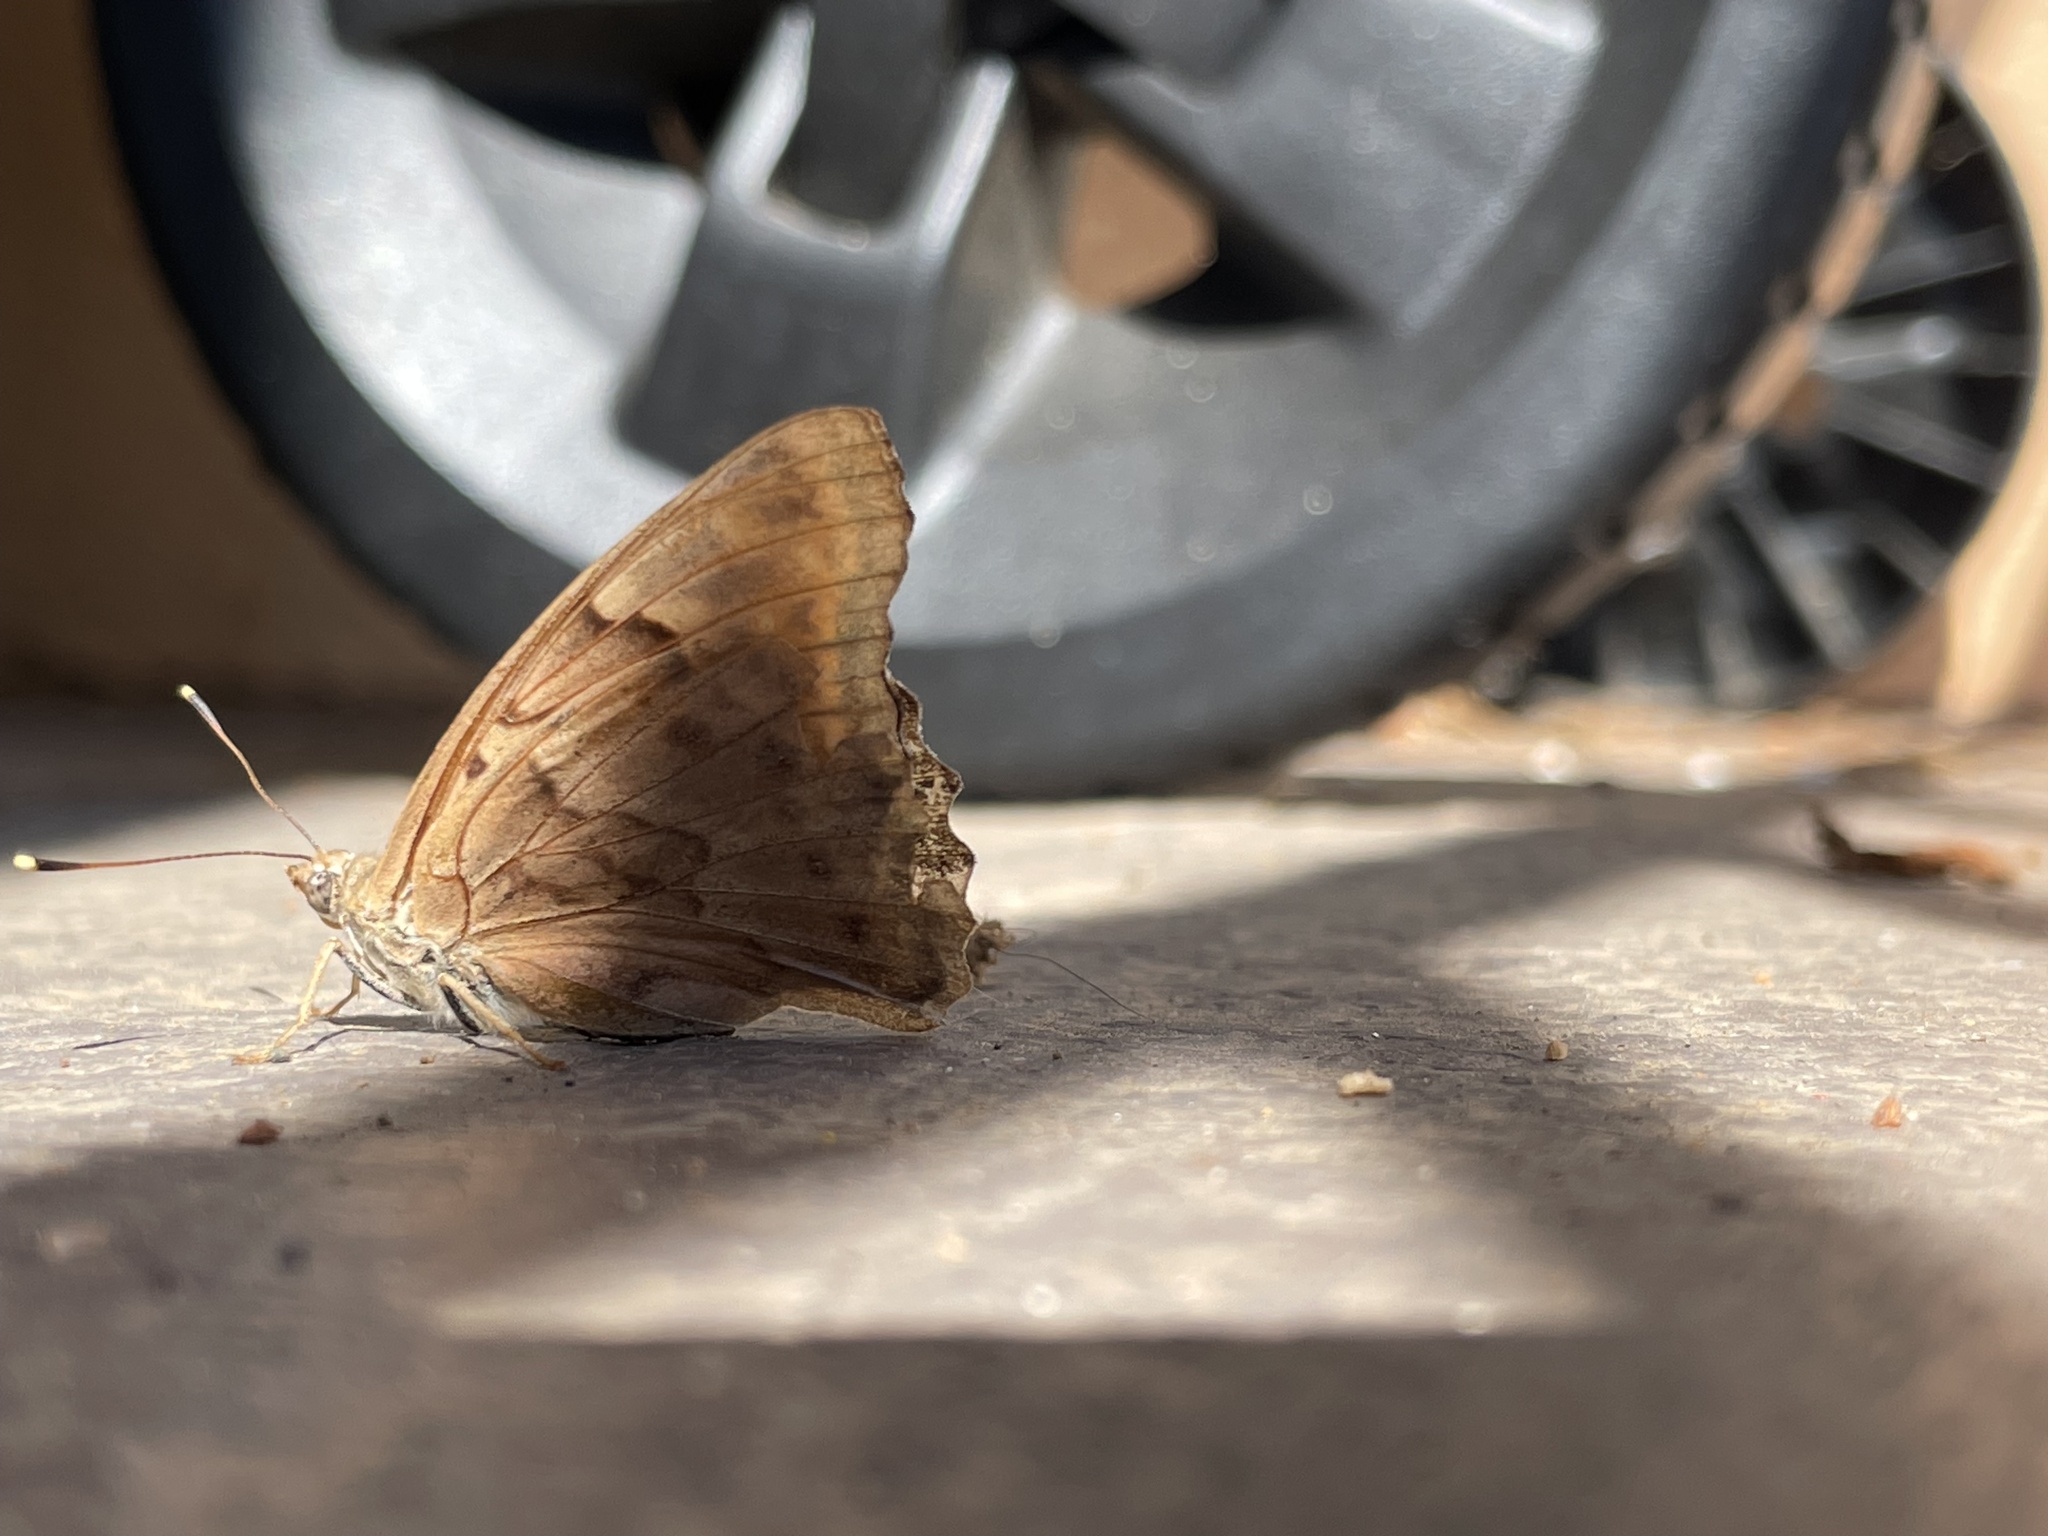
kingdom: Animalia
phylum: Arthropoda
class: Insecta
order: Lepidoptera
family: Nymphalidae
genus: Asterocampa
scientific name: Asterocampa clyton
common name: Tawny emperor
